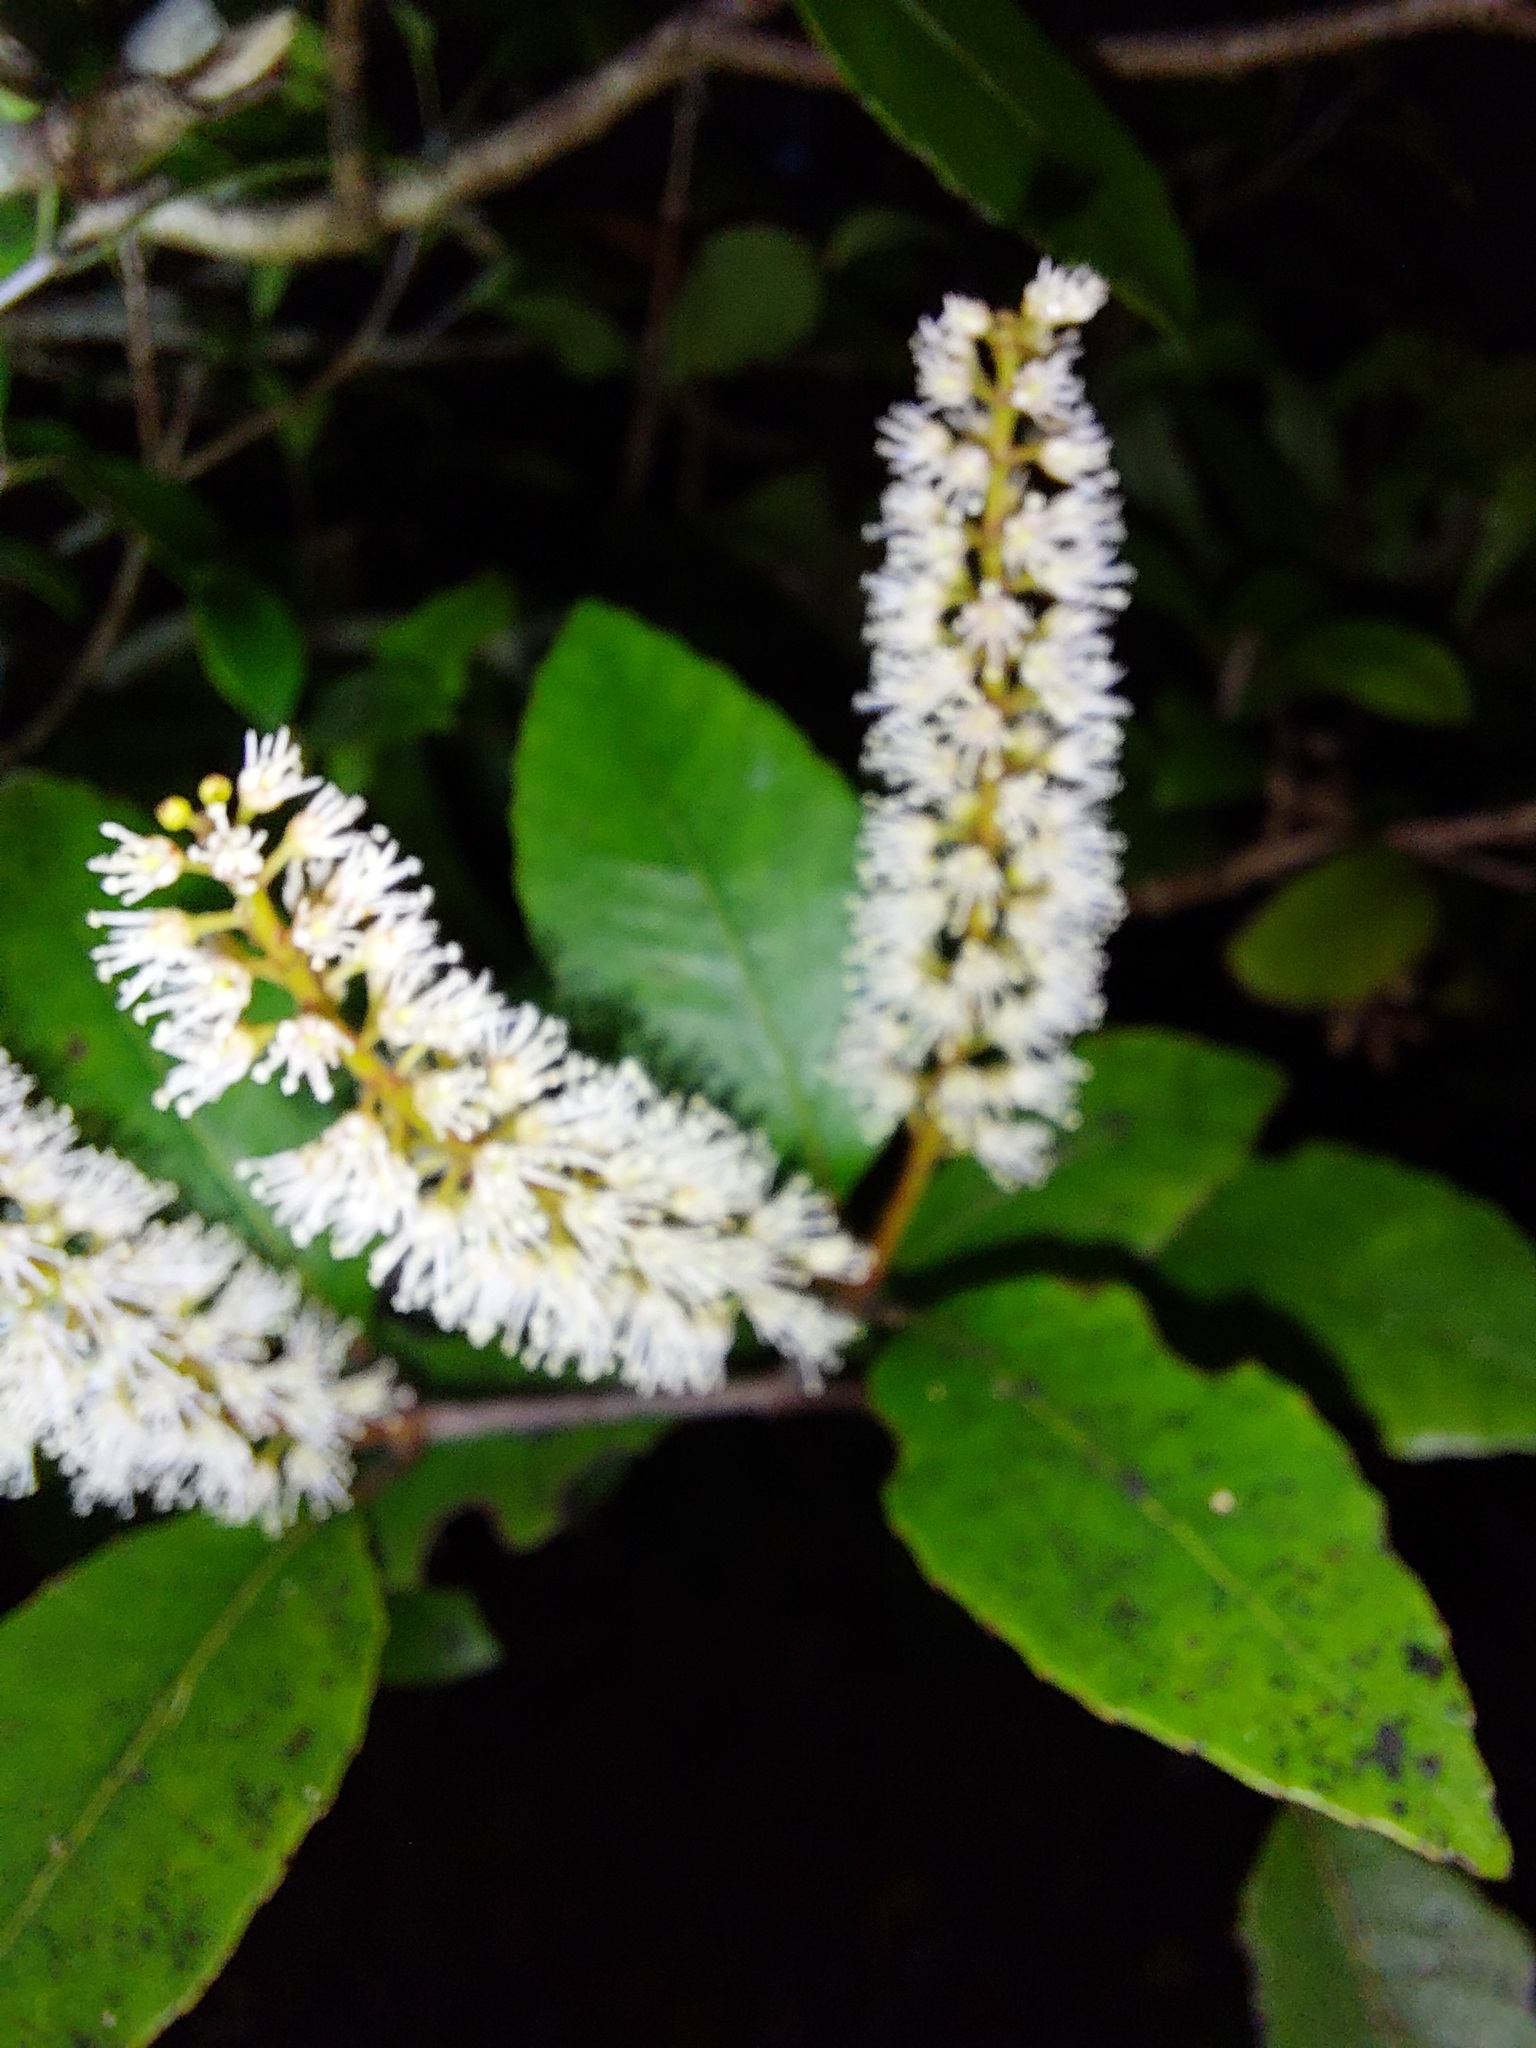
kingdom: Plantae
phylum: Tracheophyta
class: Magnoliopsida
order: Oxalidales
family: Cunoniaceae
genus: Pterophylla
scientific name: Pterophylla racemosa
